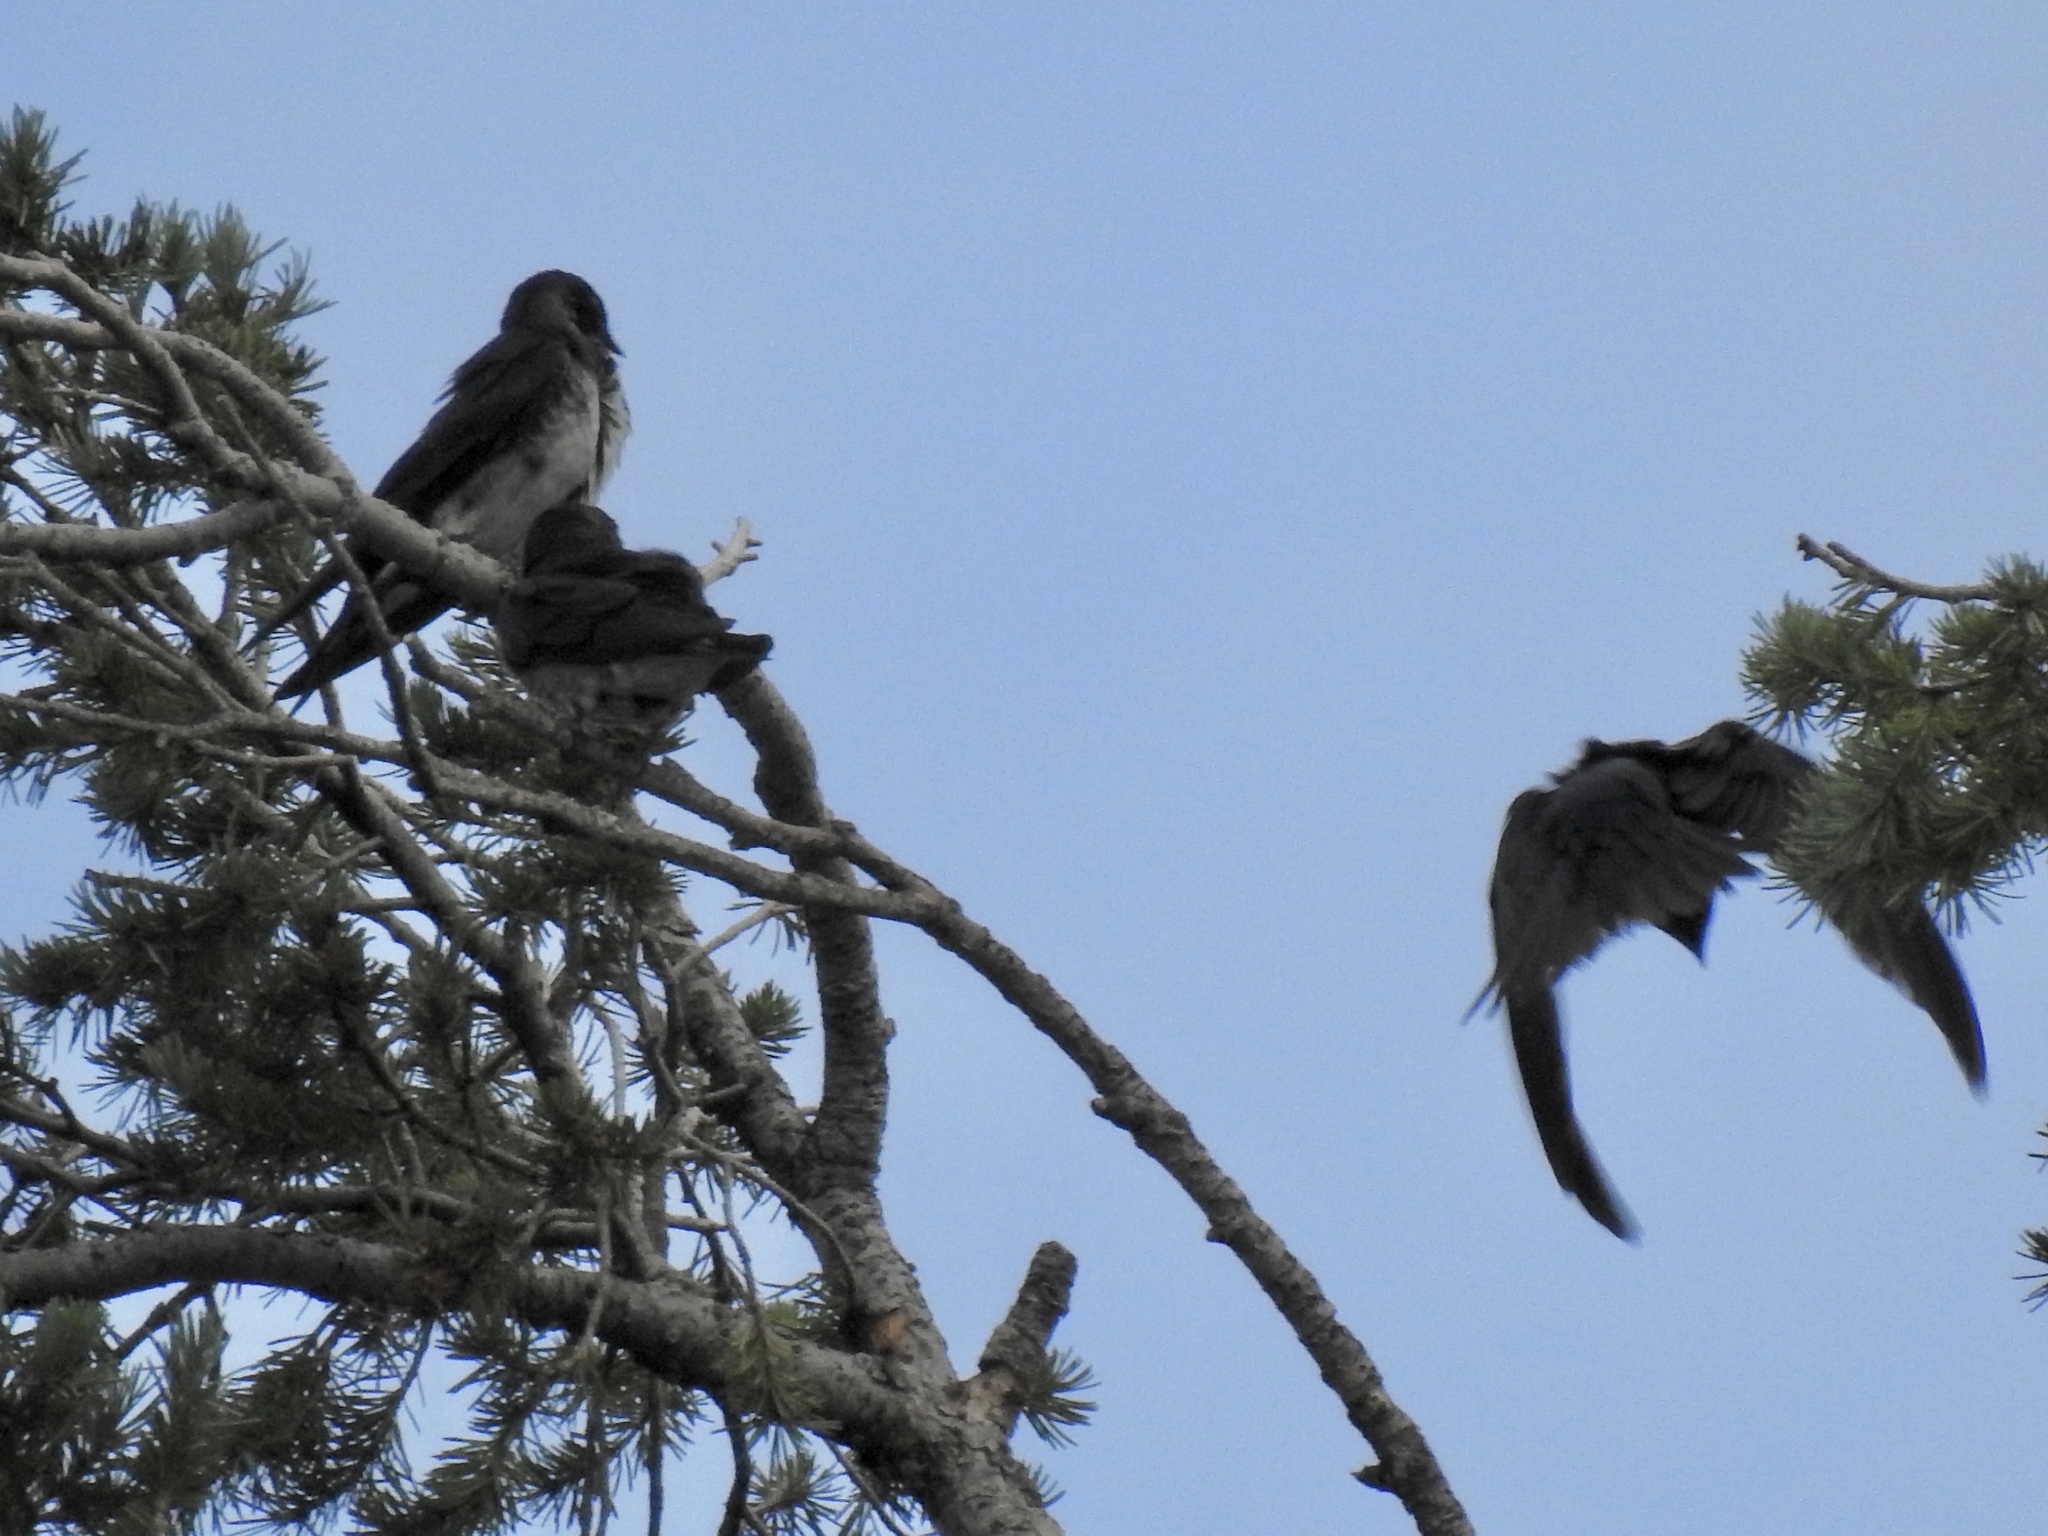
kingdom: Animalia
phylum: Chordata
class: Aves
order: Passeriformes
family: Hirundinidae
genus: Progne
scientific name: Progne subis
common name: Purple martin
